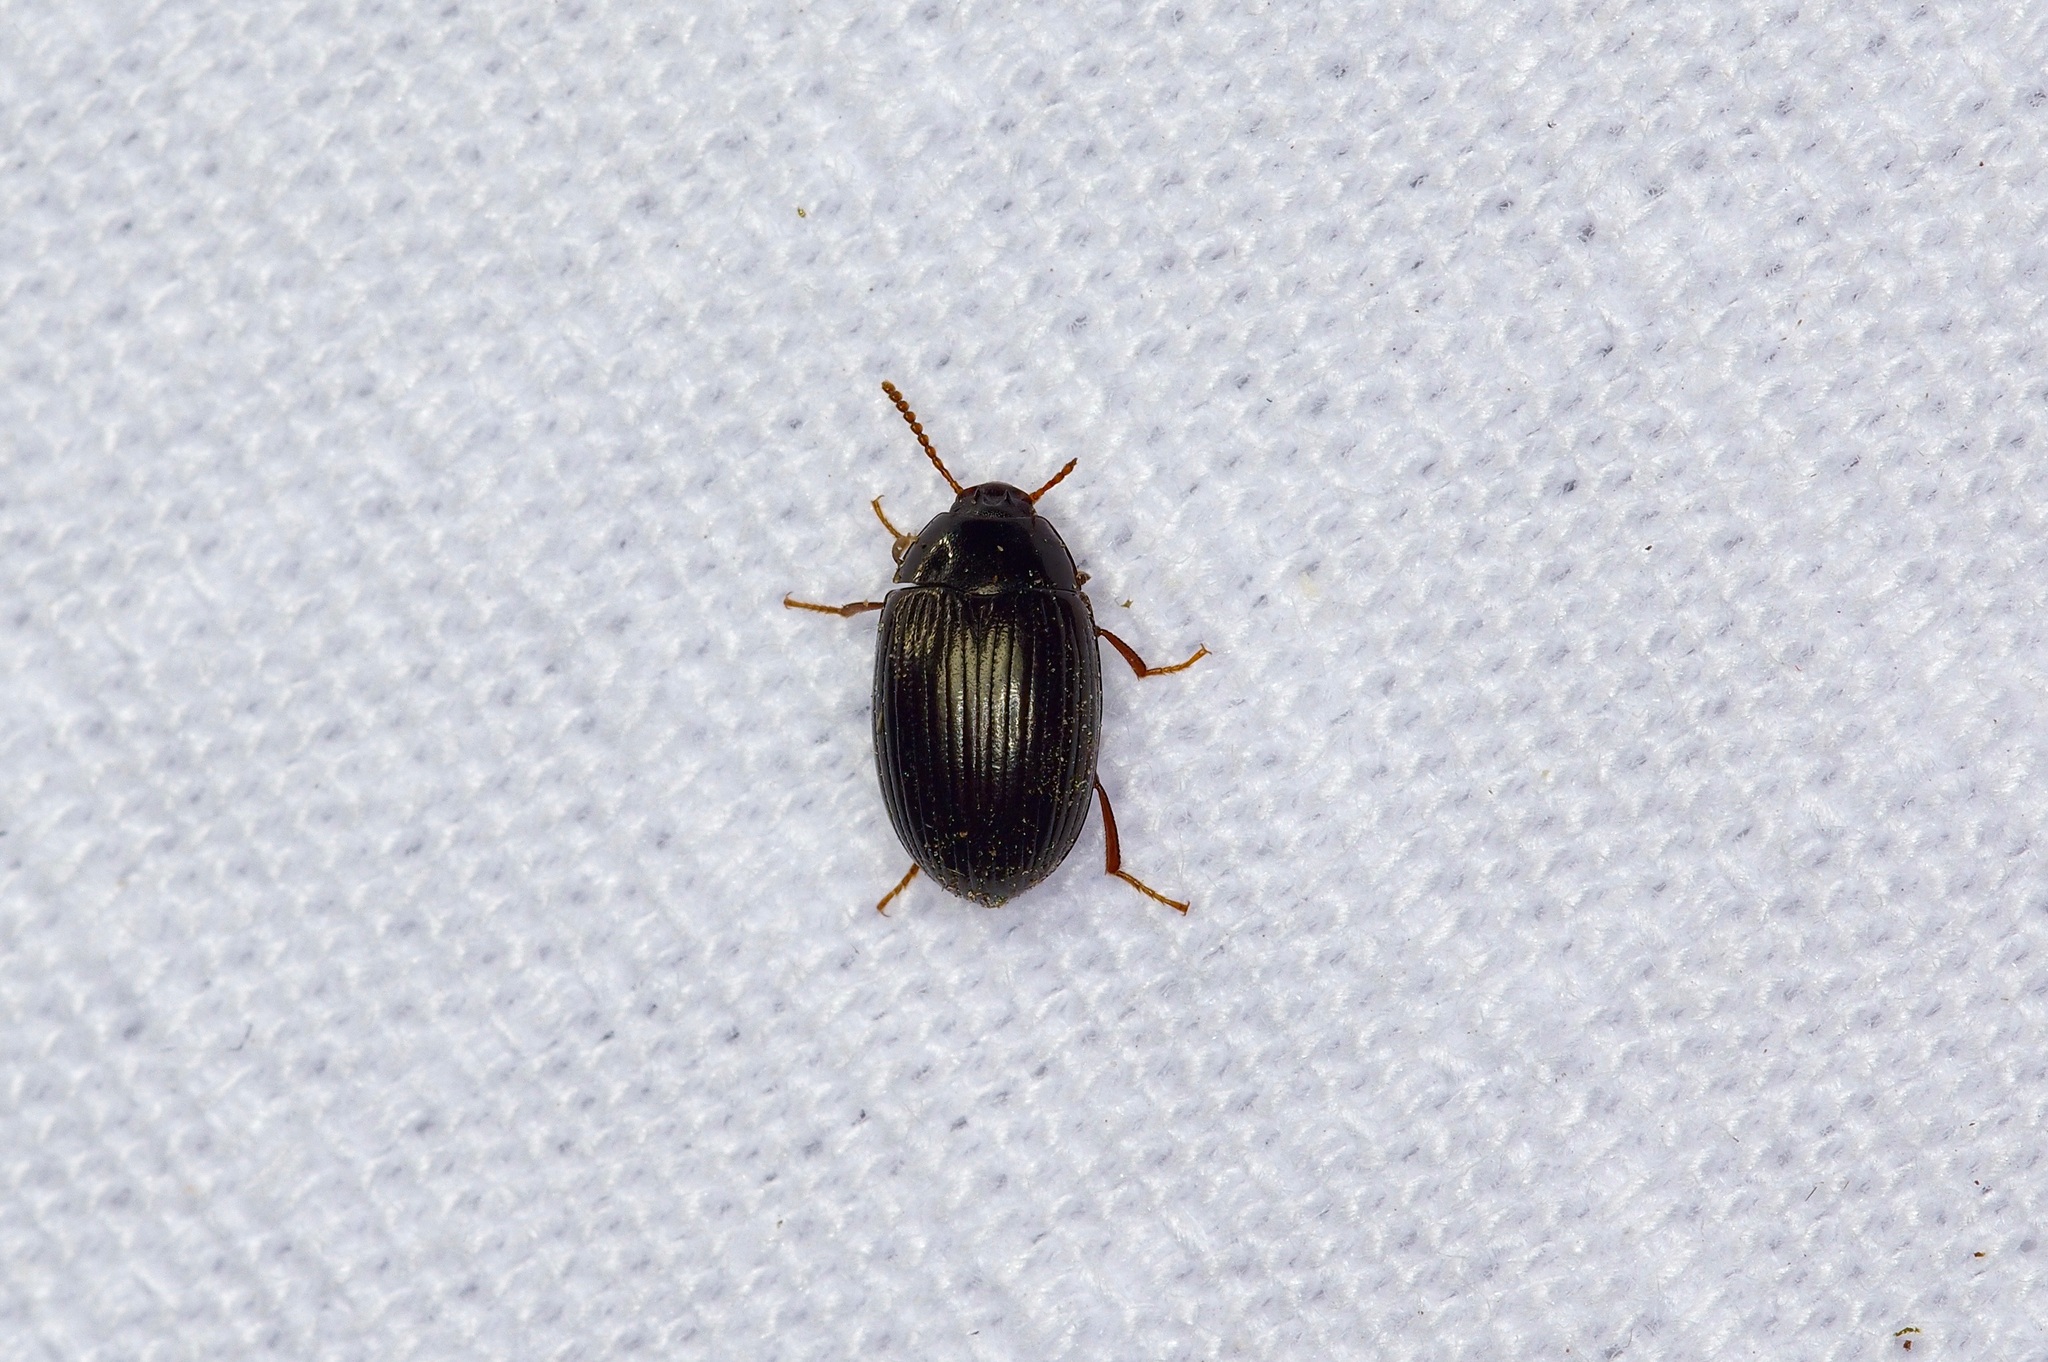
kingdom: Animalia
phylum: Arthropoda
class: Insecta
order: Coleoptera
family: Tenebrionidae
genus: Platydema
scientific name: Platydema excavata
